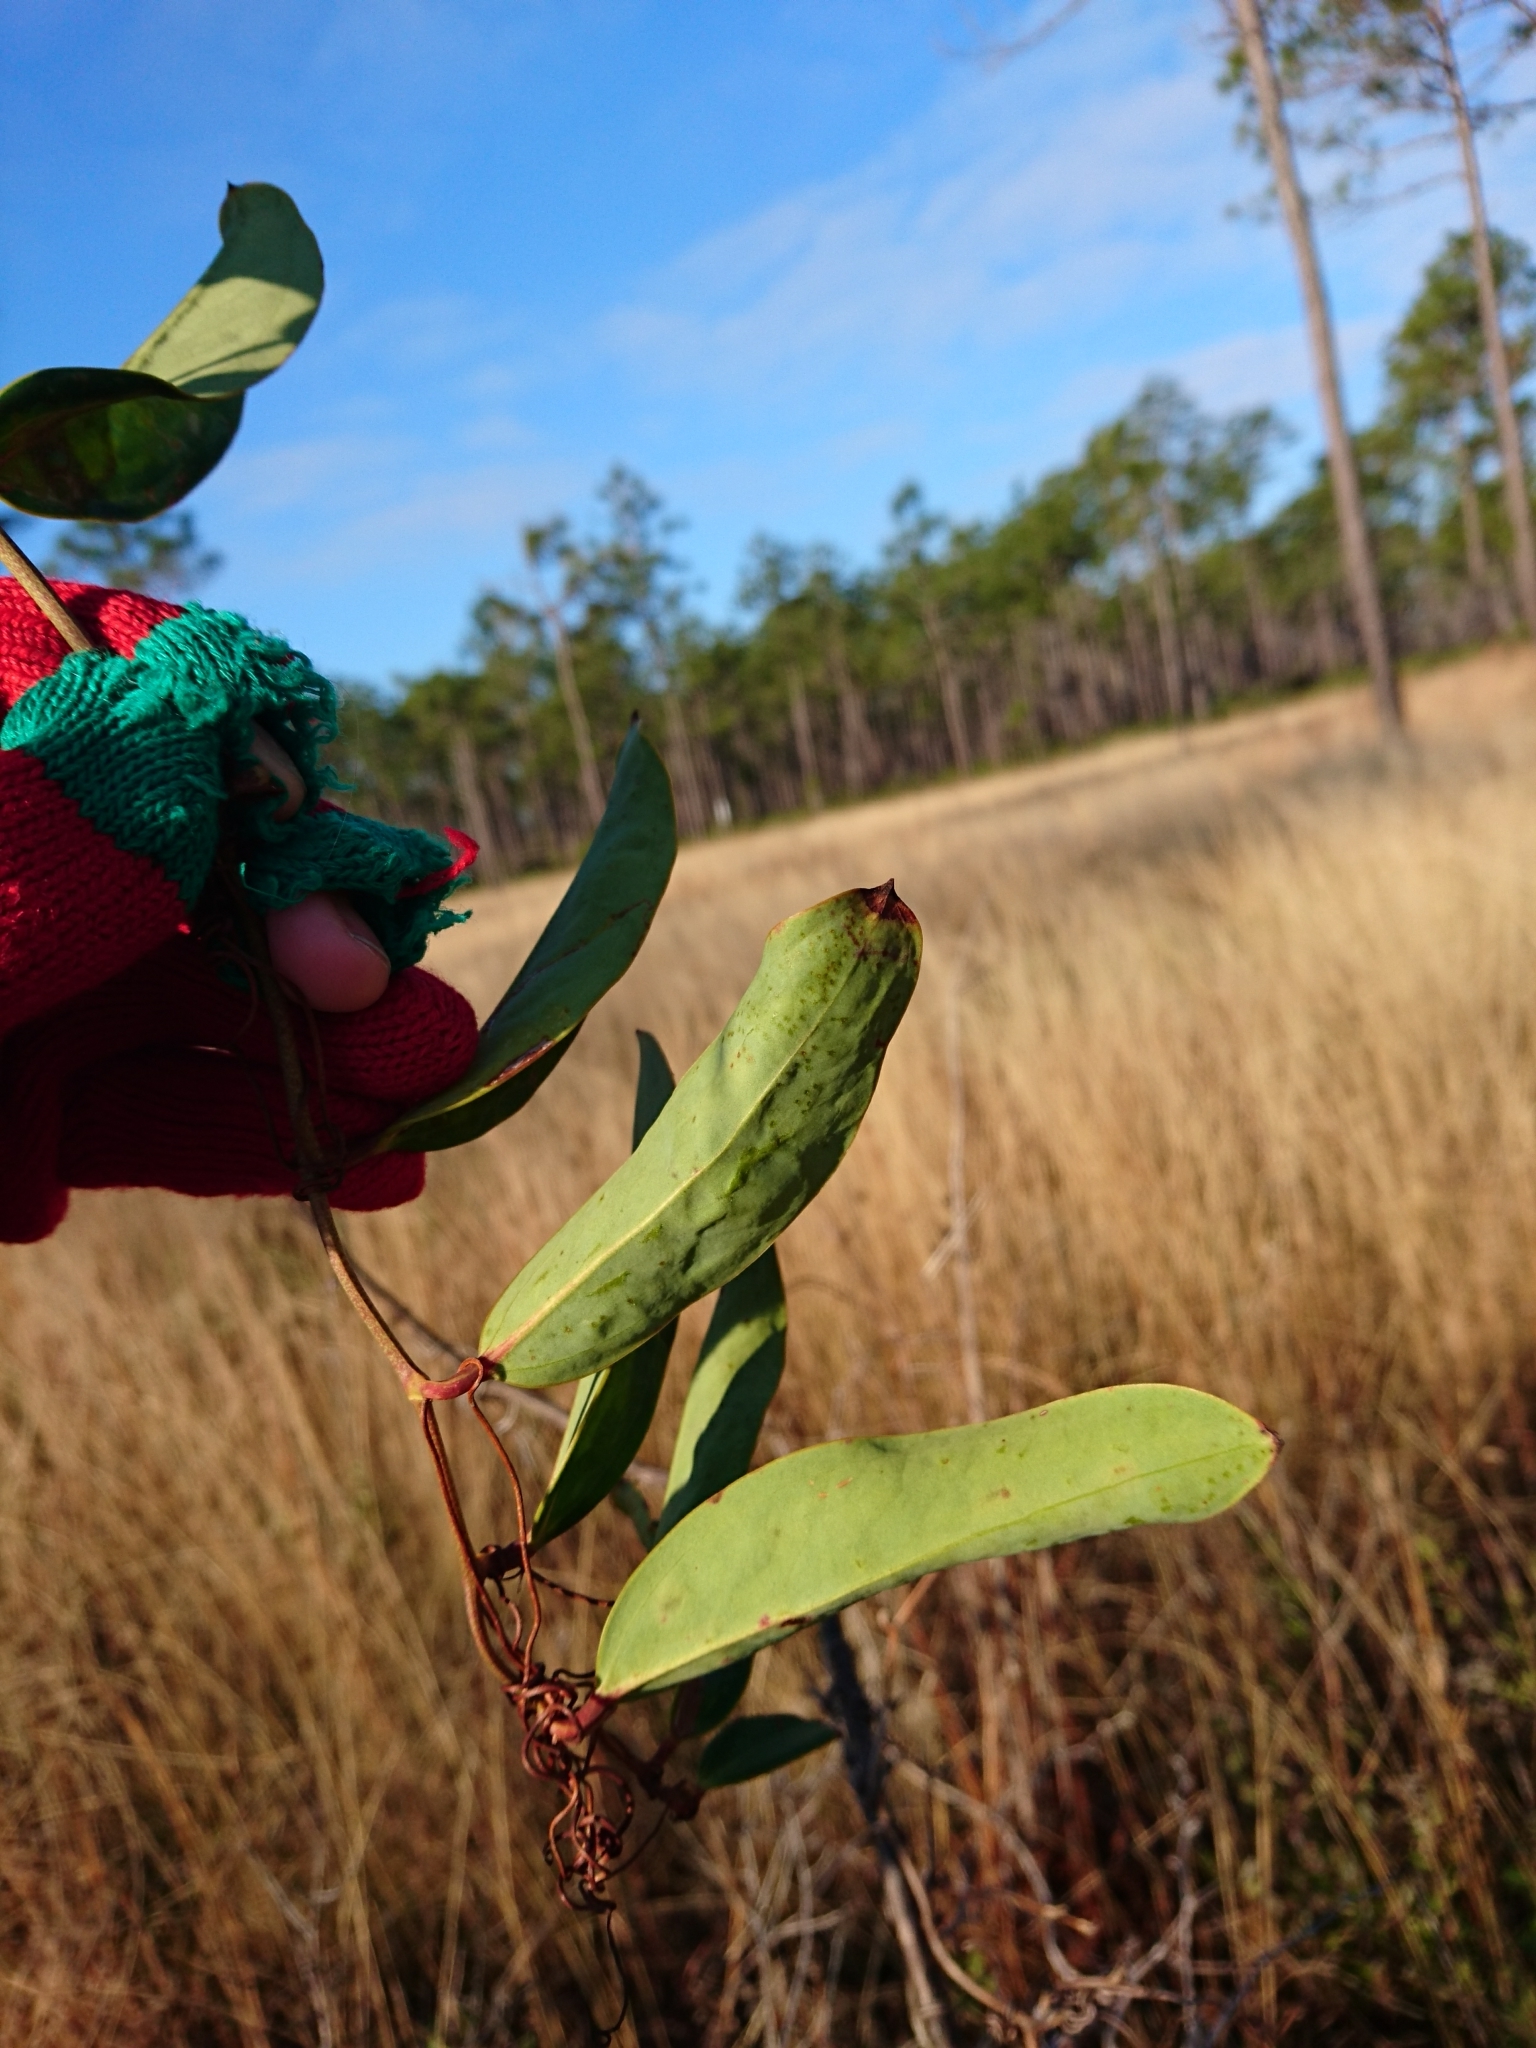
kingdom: Plantae
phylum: Tracheophyta
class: Liliopsida
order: Liliales
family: Smilacaceae
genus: Smilax
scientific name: Smilax laurifolia
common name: Bamboovine
